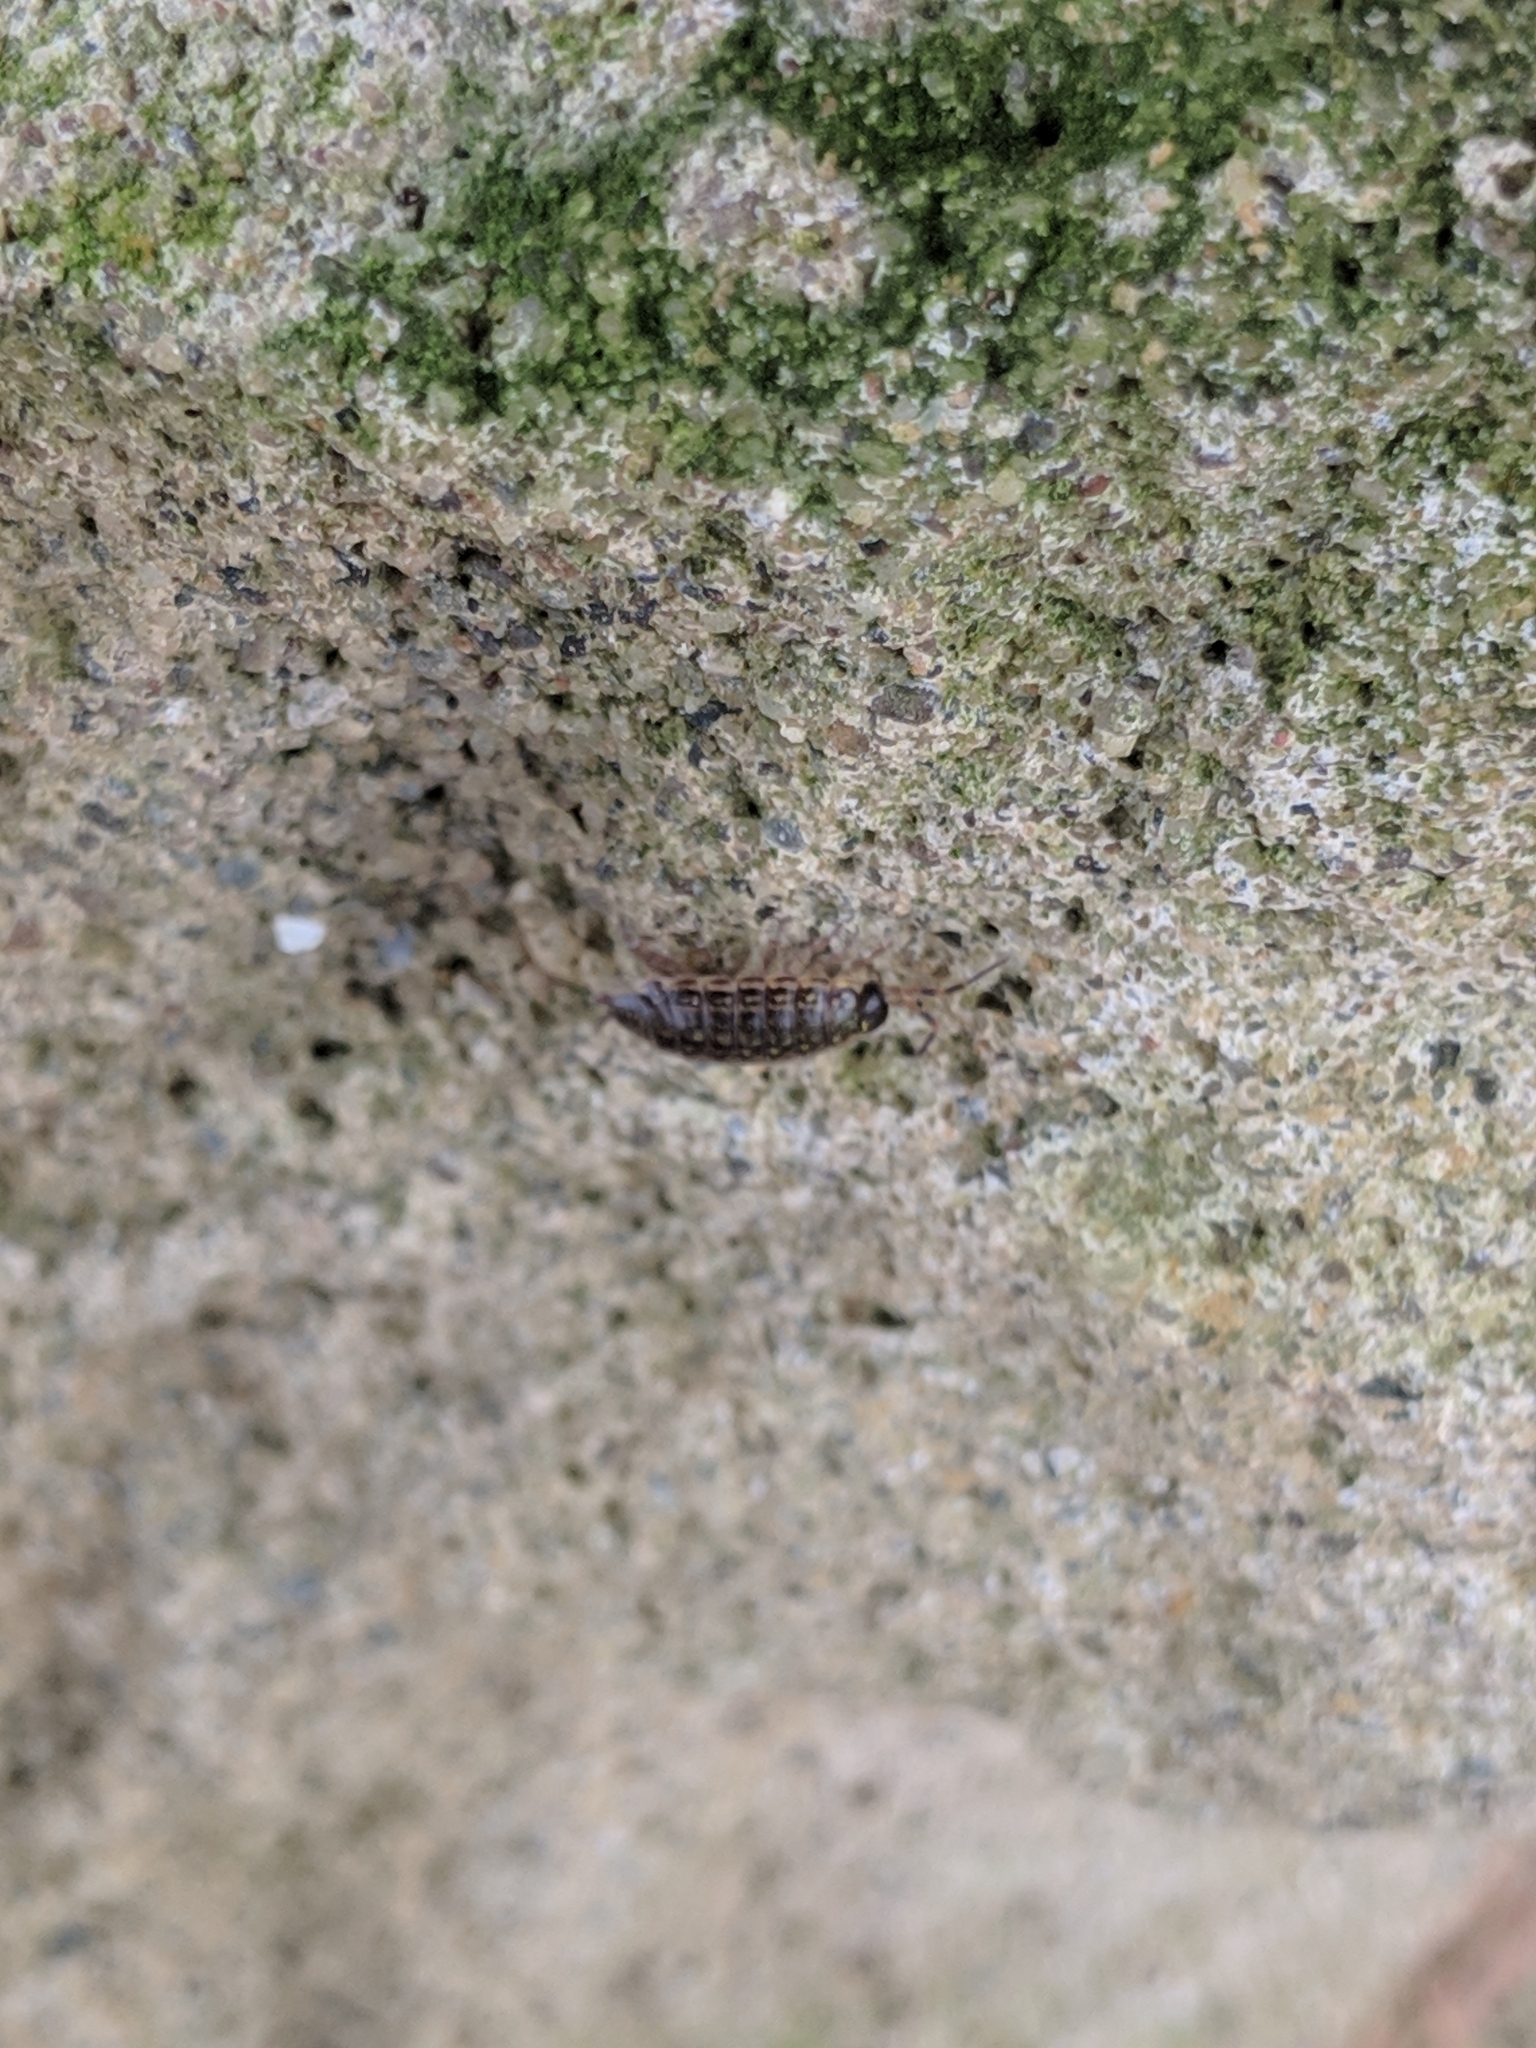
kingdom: Animalia
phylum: Arthropoda
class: Malacostraca
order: Isopoda
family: Philosciidae
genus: Philoscia
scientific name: Philoscia muscorum
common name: Common striped woodlouse
